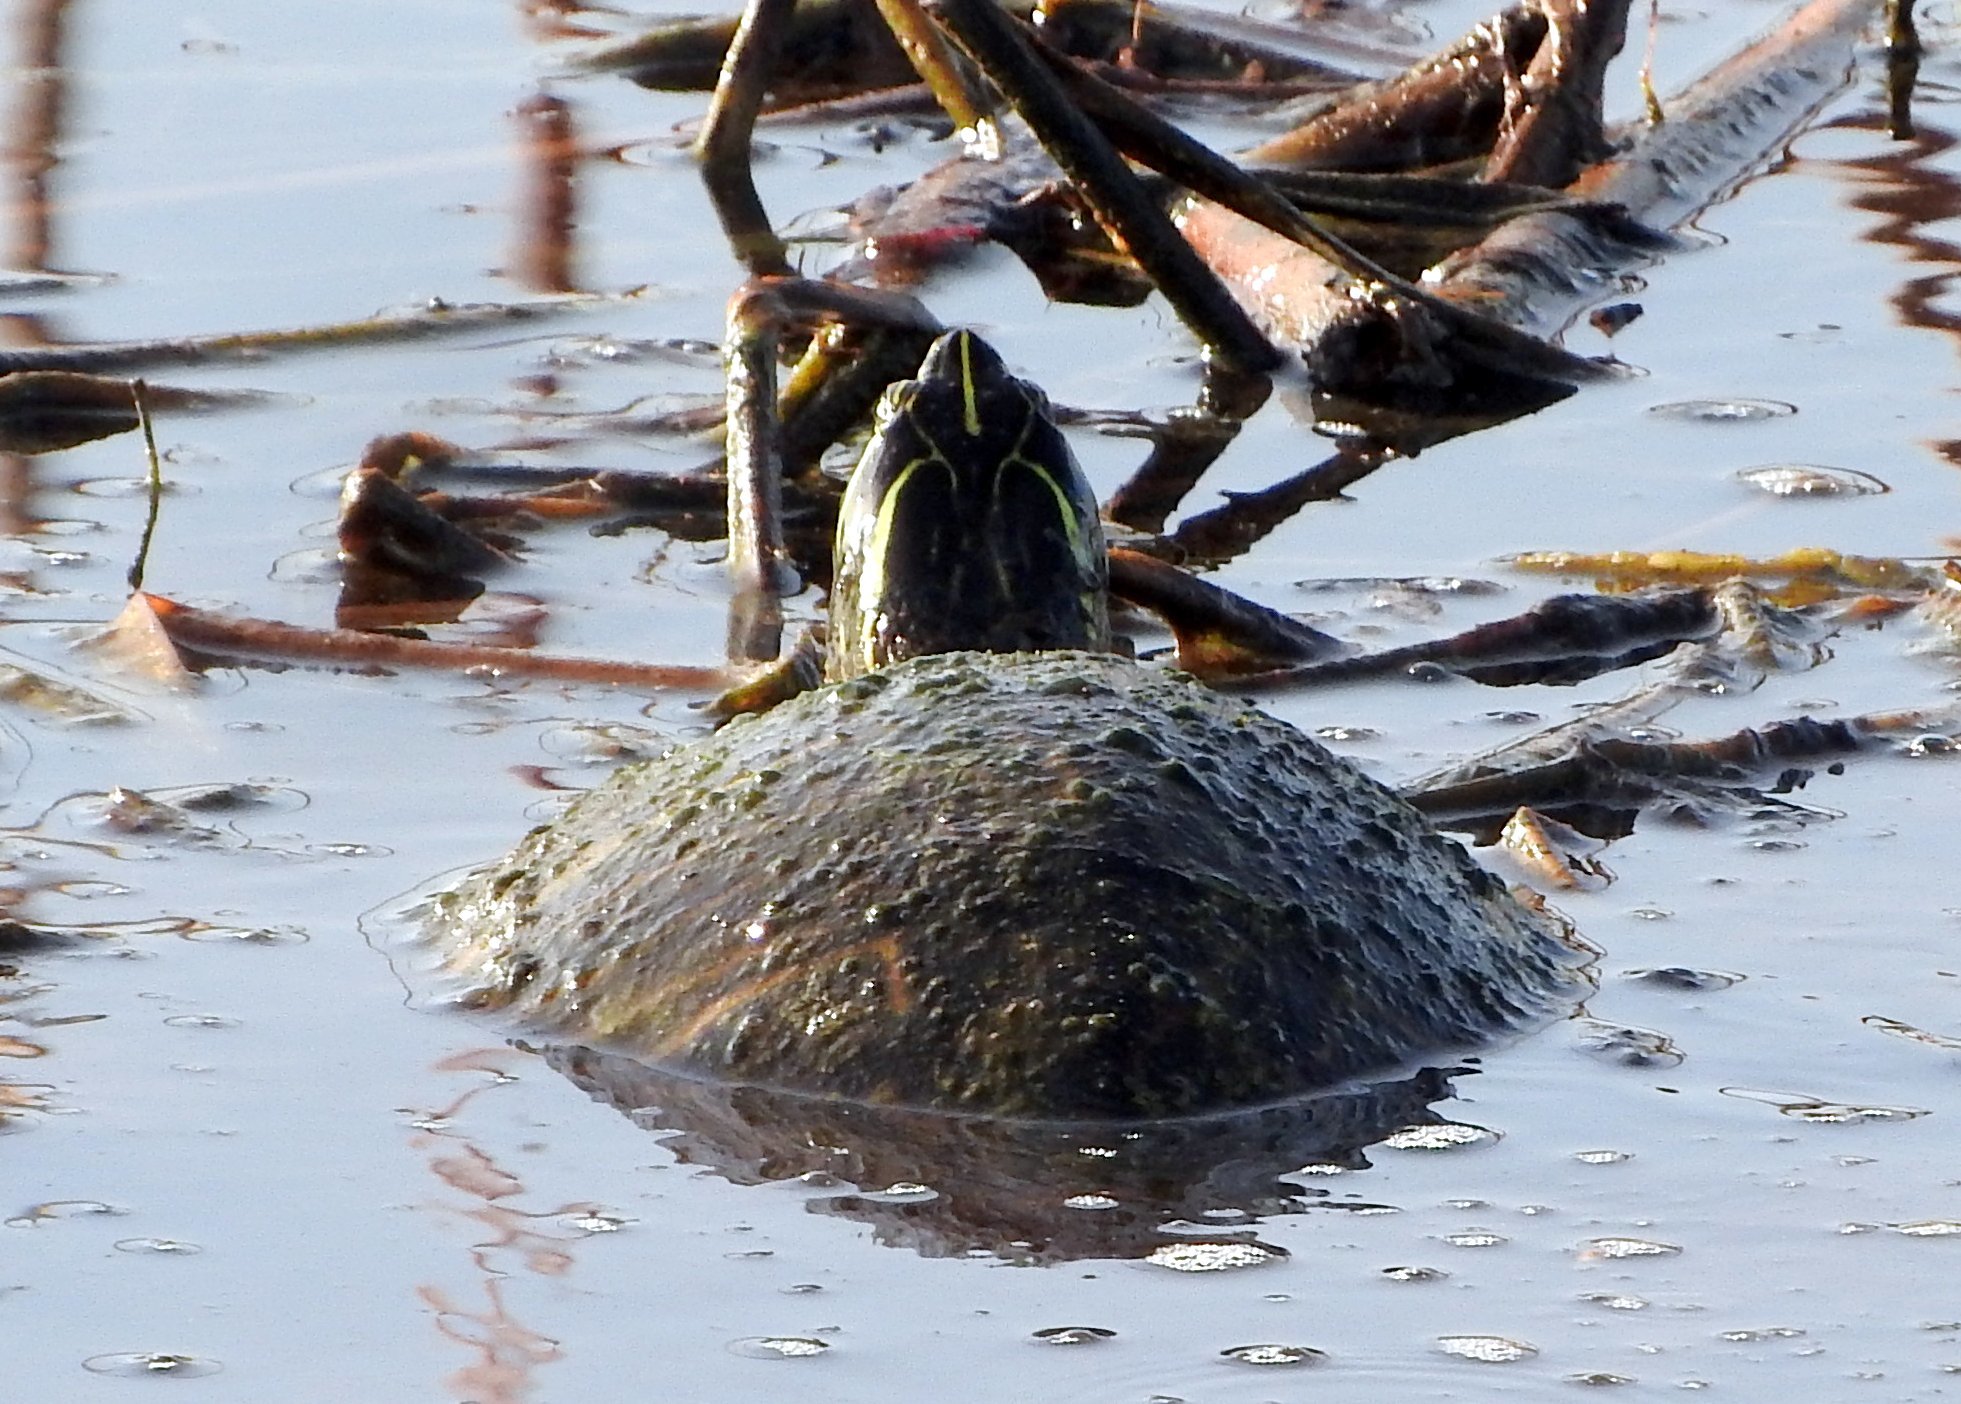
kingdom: Animalia
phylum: Chordata
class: Testudines
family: Emydidae
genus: Pseudemys
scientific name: Pseudemys peninsularis
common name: Peninsula cooter
